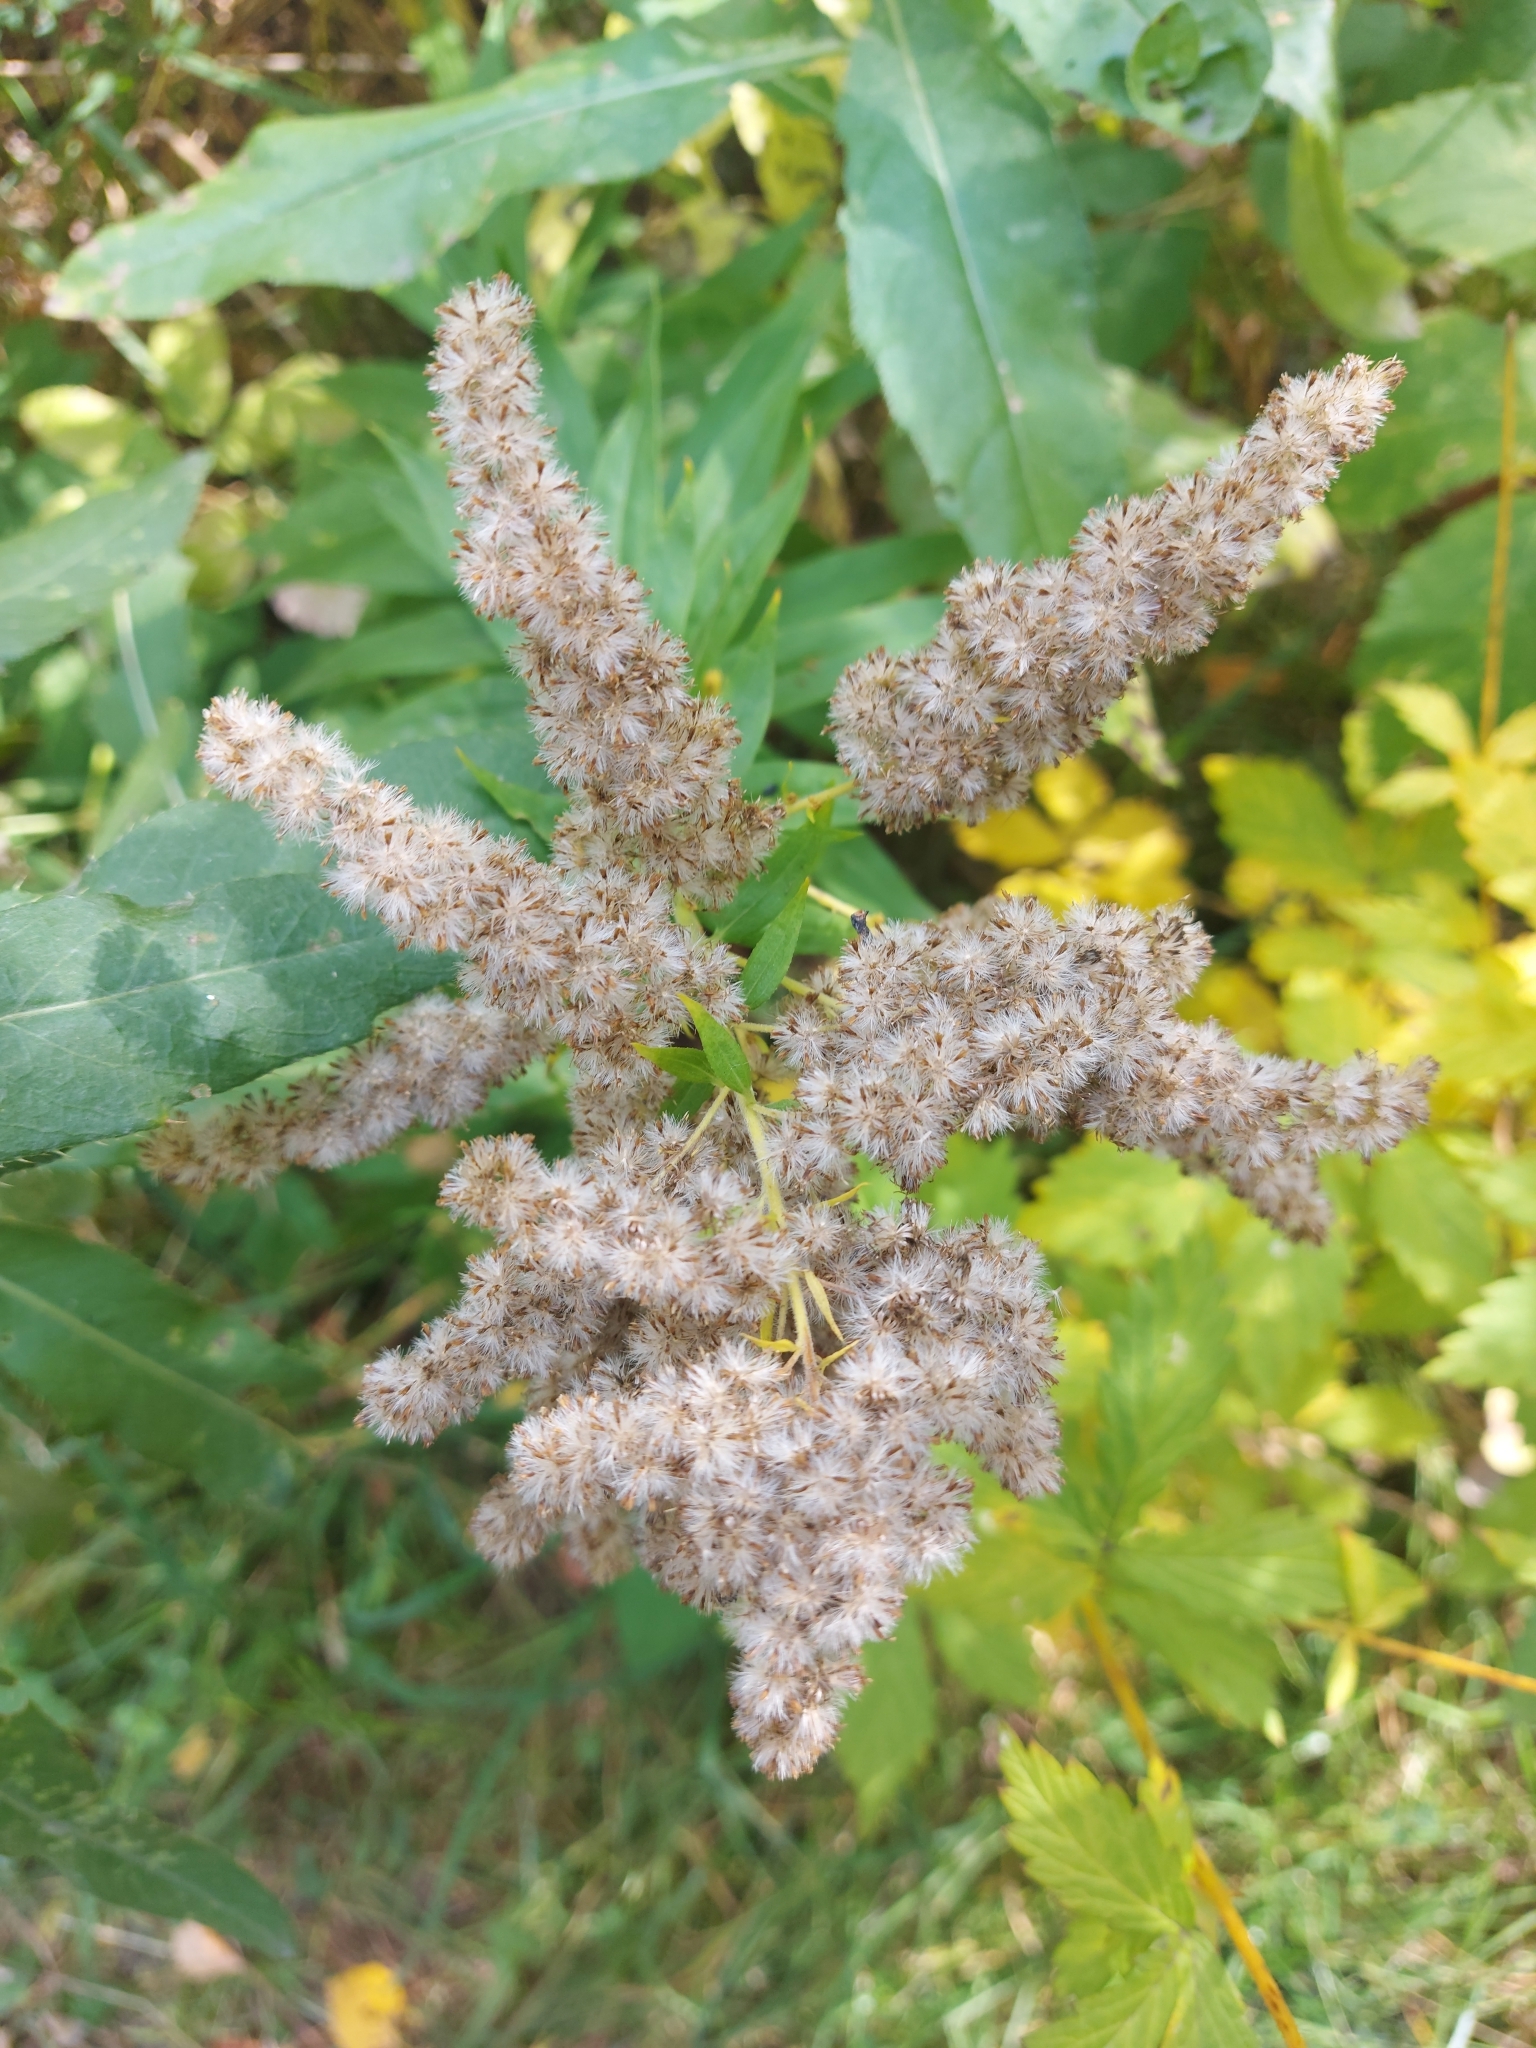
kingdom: Plantae
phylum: Tracheophyta
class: Magnoliopsida
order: Asterales
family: Asteraceae
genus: Solidago
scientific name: Solidago canadensis
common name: Canada goldenrod
